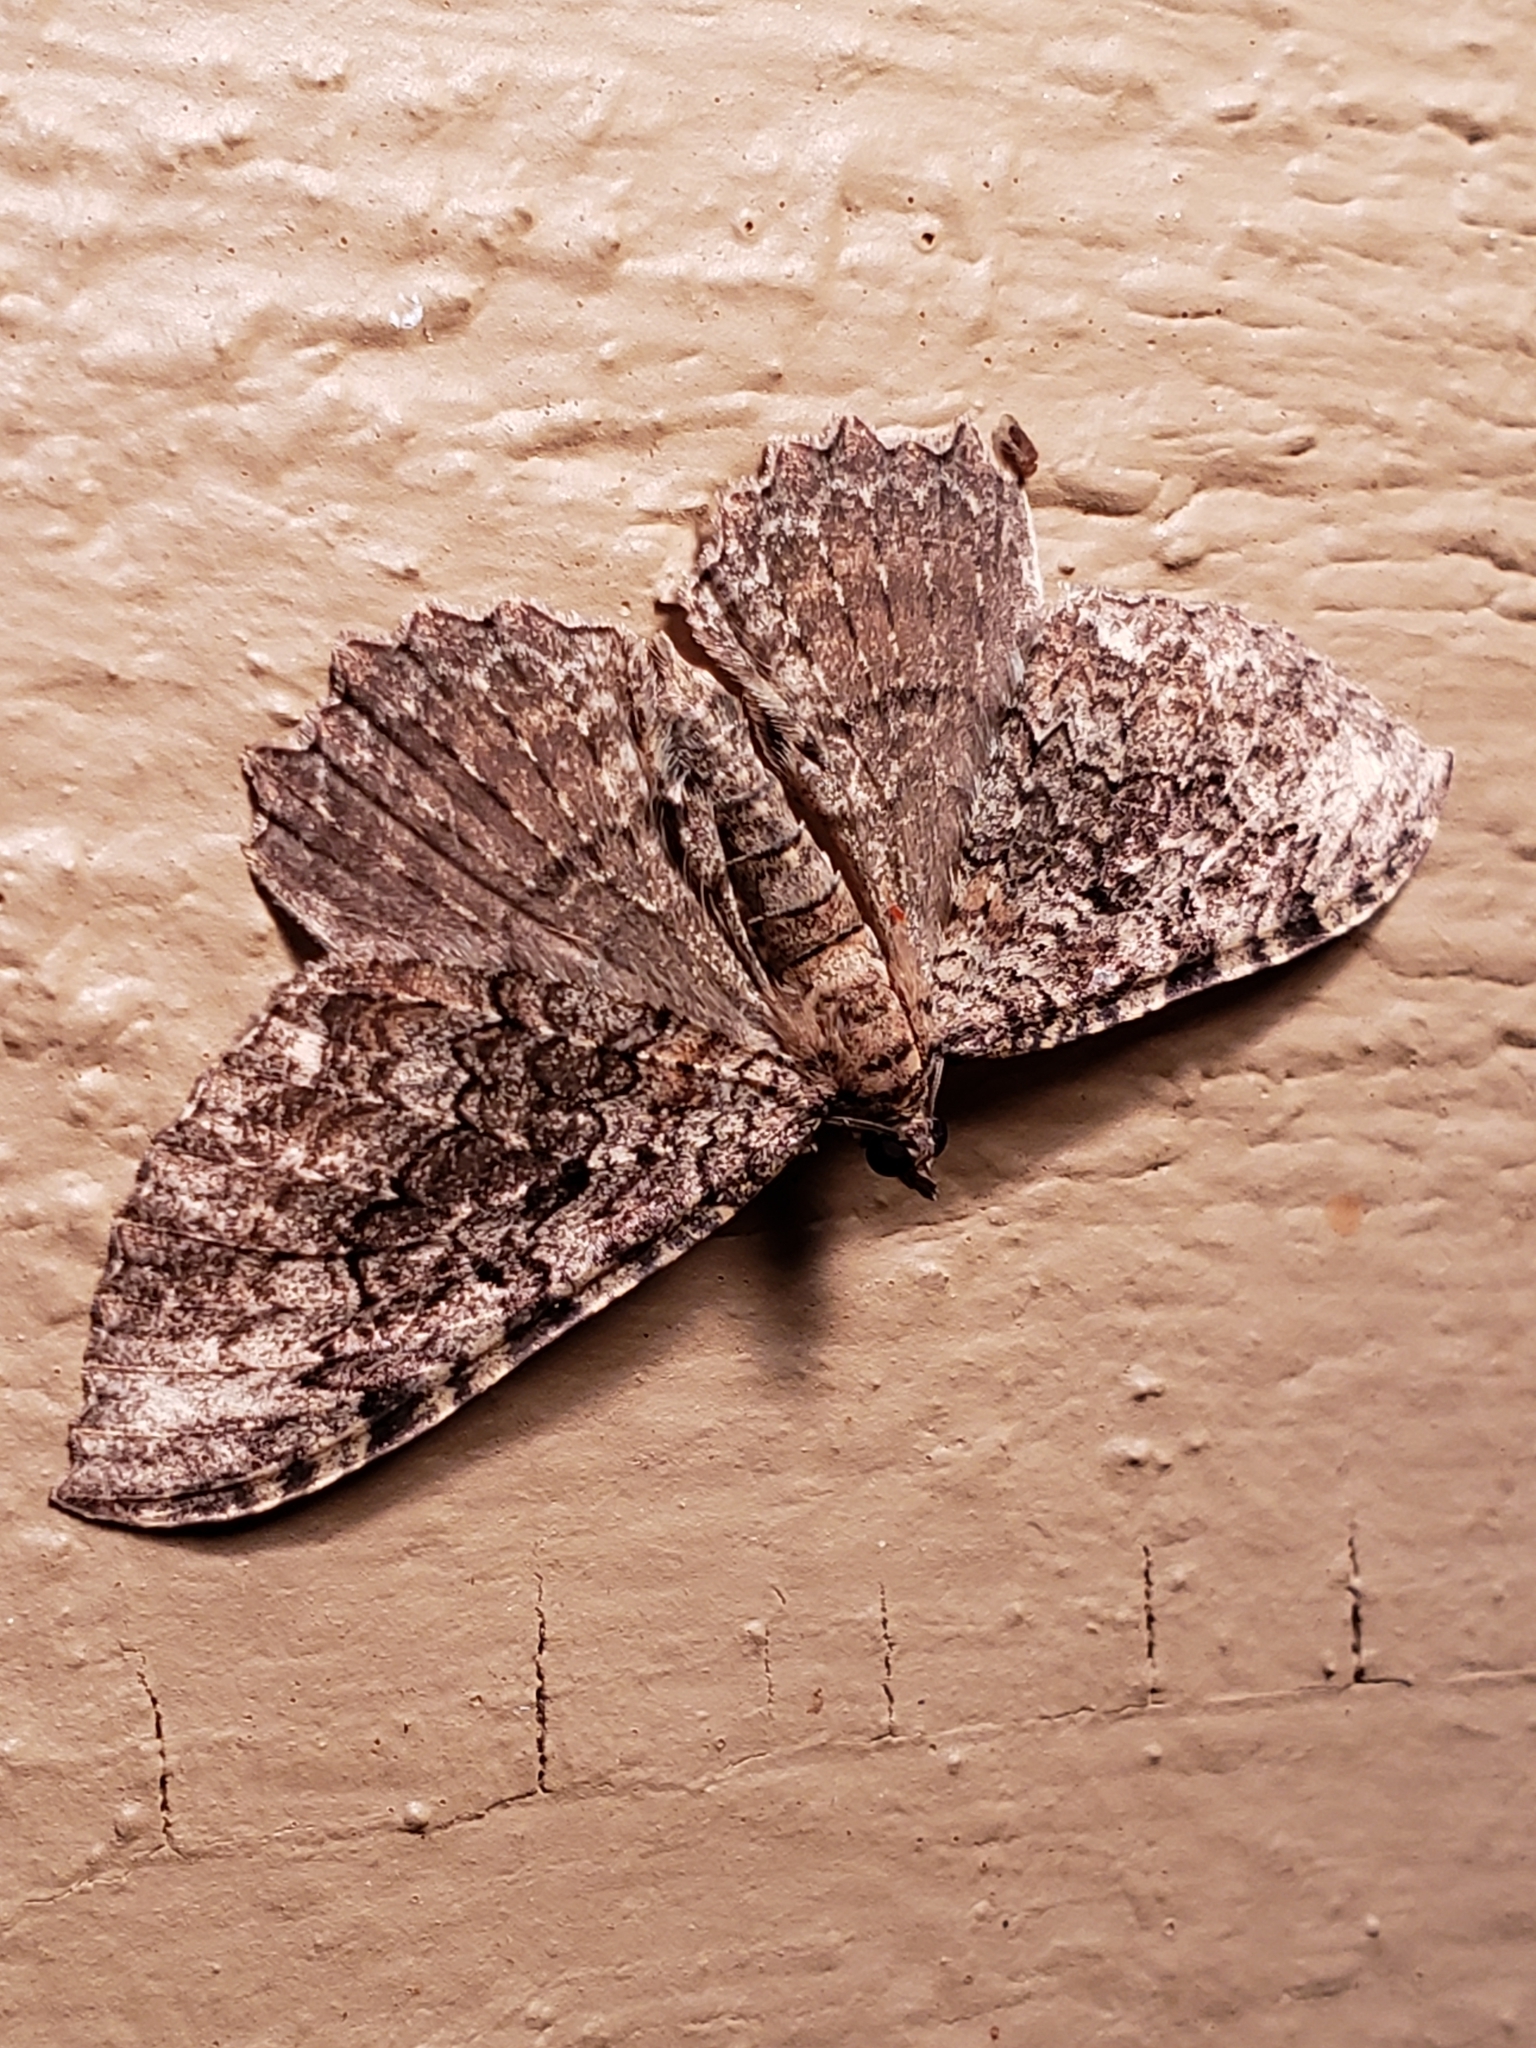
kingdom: Animalia
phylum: Arthropoda
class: Insecta
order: Lepidoptera
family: Geometridae
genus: Rheumaptera
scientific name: Rheumaptera
